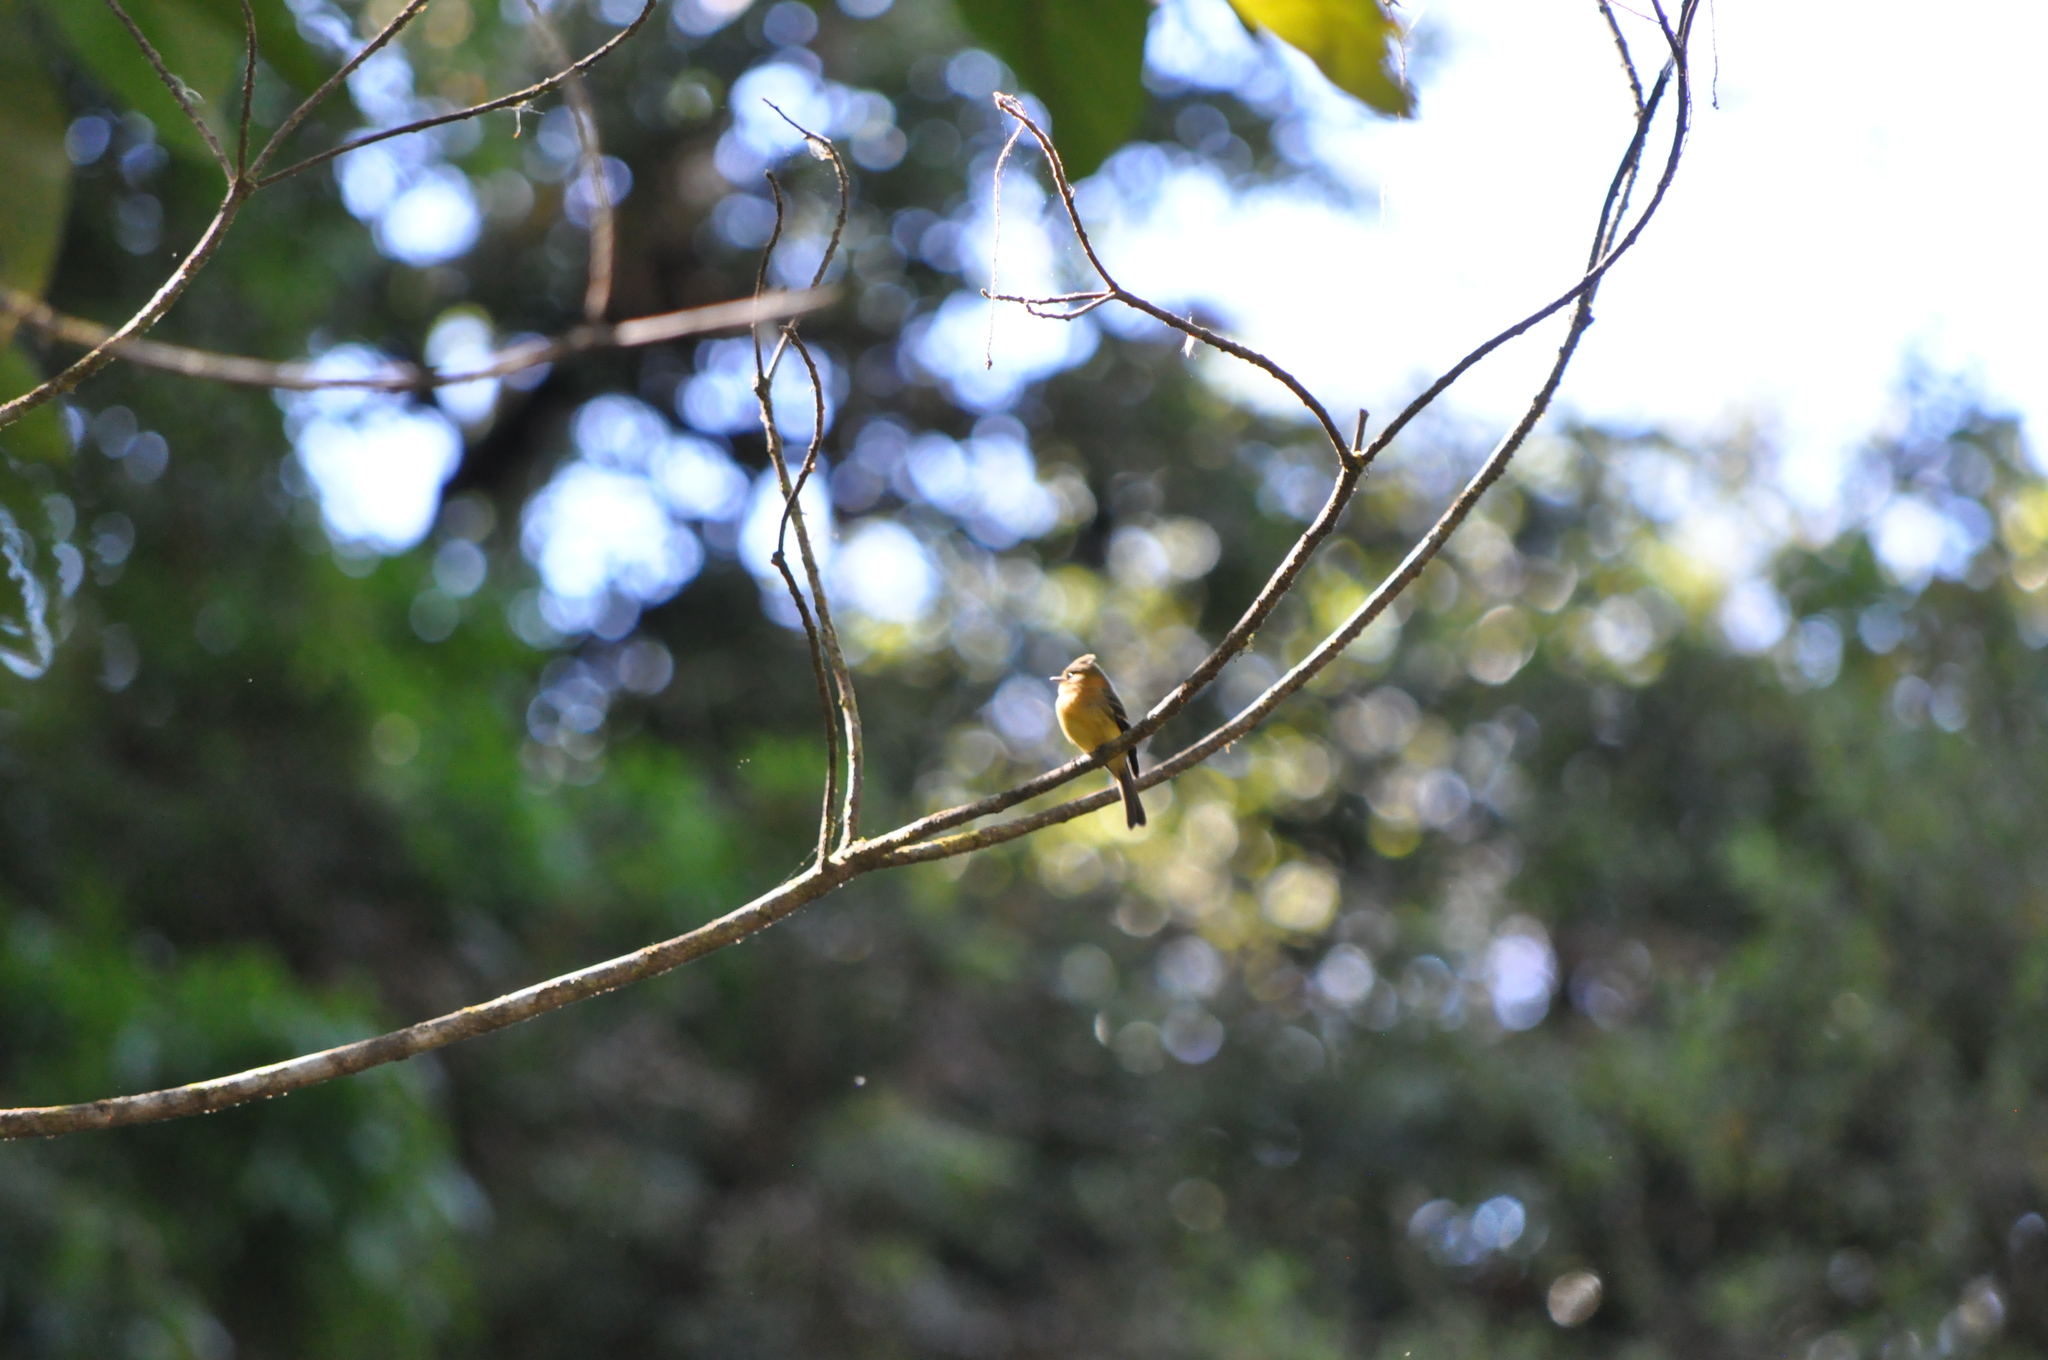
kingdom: Animalia
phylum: Chordata
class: Aves
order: Passeriformes
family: Tyrannidae
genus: Mitrephanes
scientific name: Mitrephanes phaeocercus
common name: Northern tufted flycatcher
